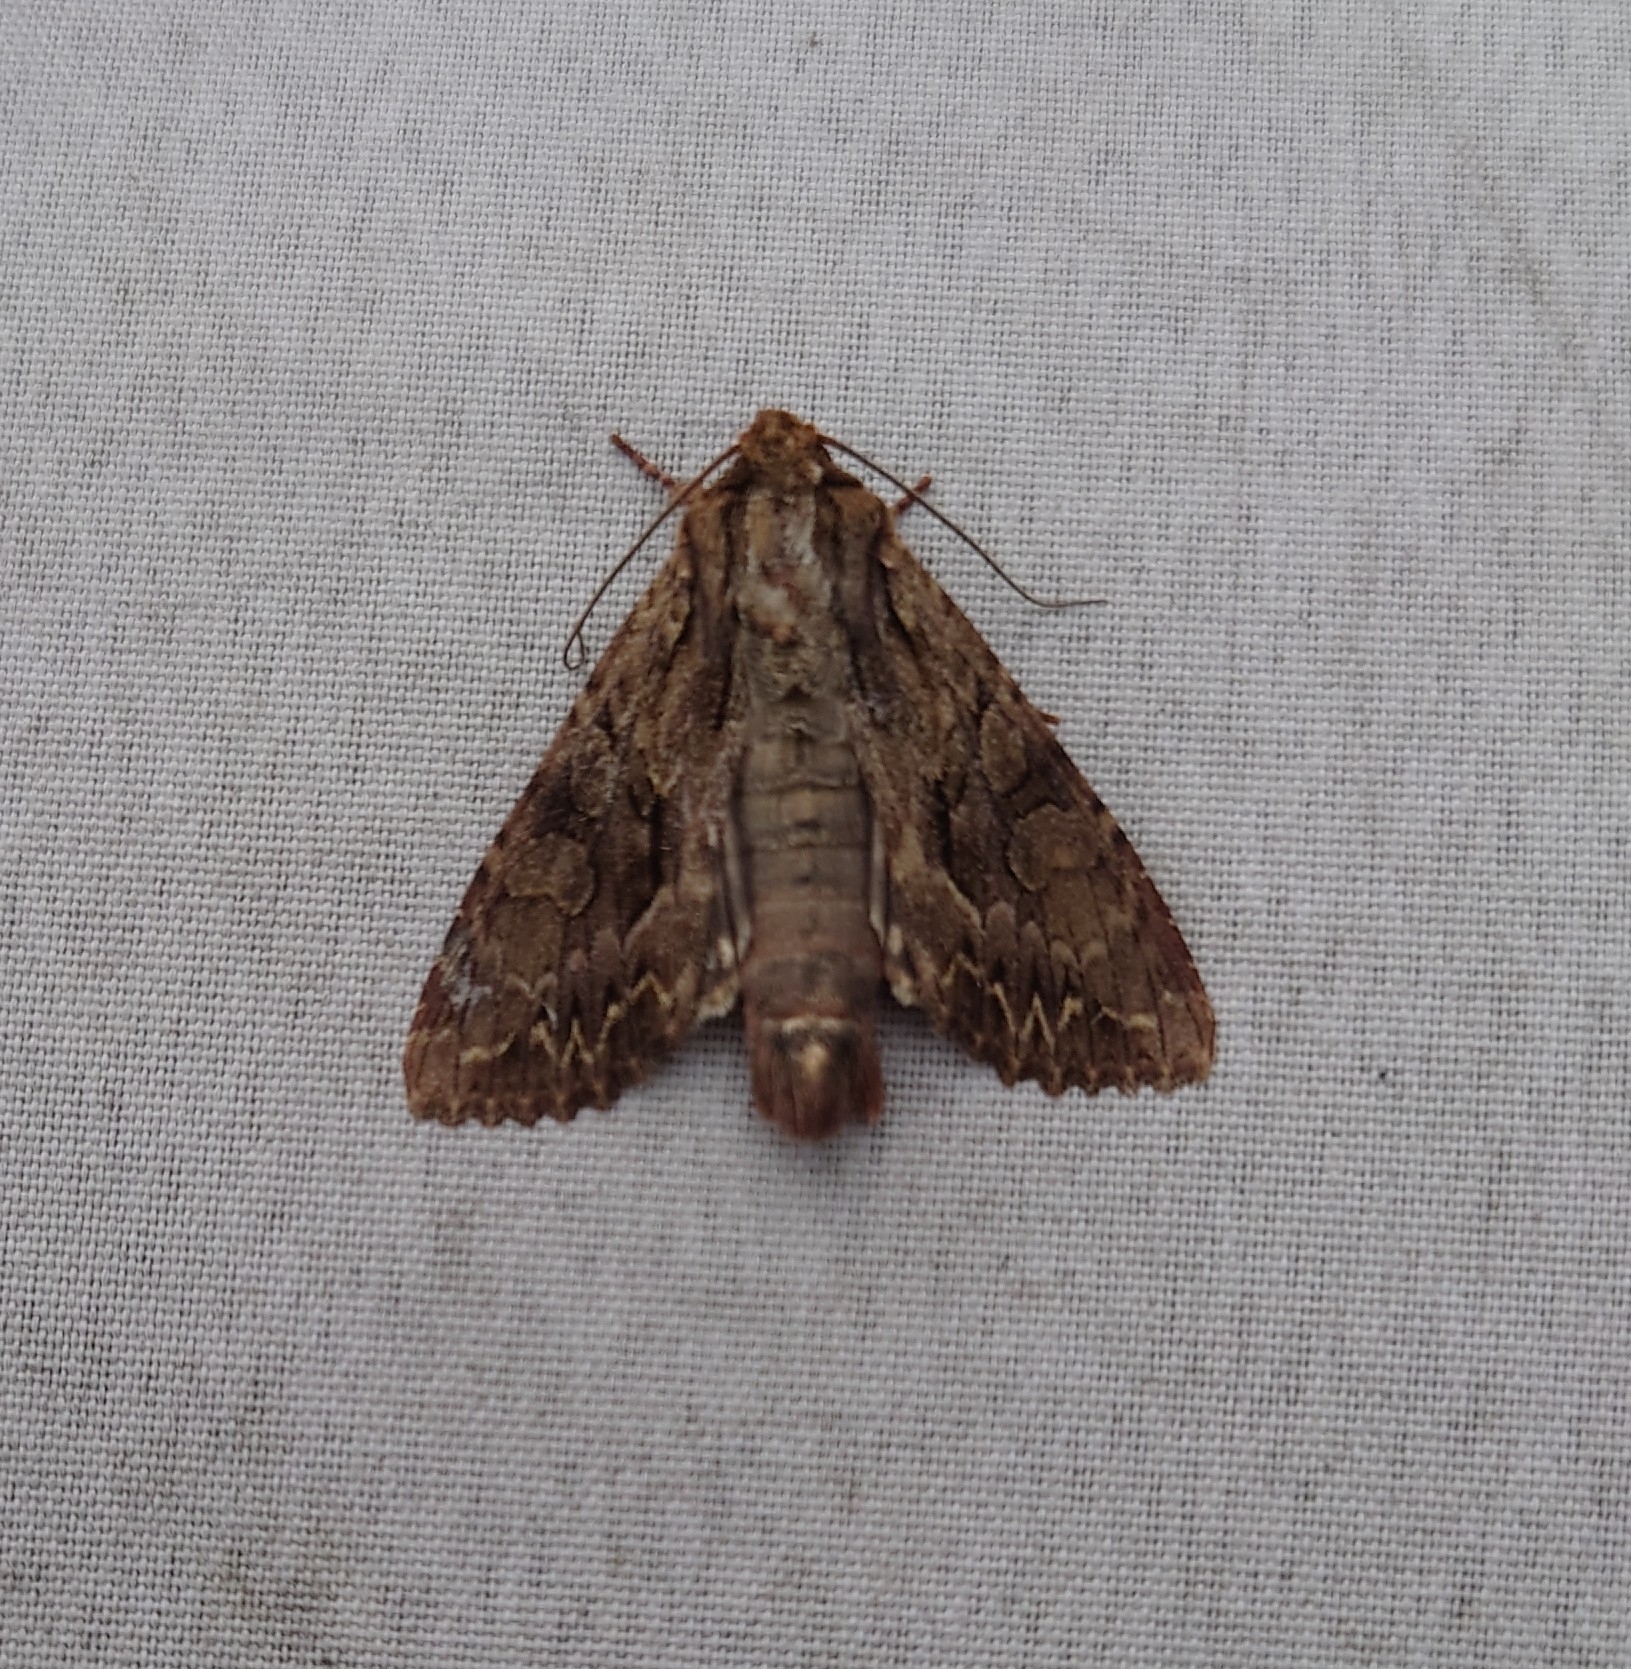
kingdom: Animalia
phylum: Arthropoda
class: Insecta
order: Lepidoptera
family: Noctuidae
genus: Apamea
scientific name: Apamea monoglypha
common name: Dark arches
